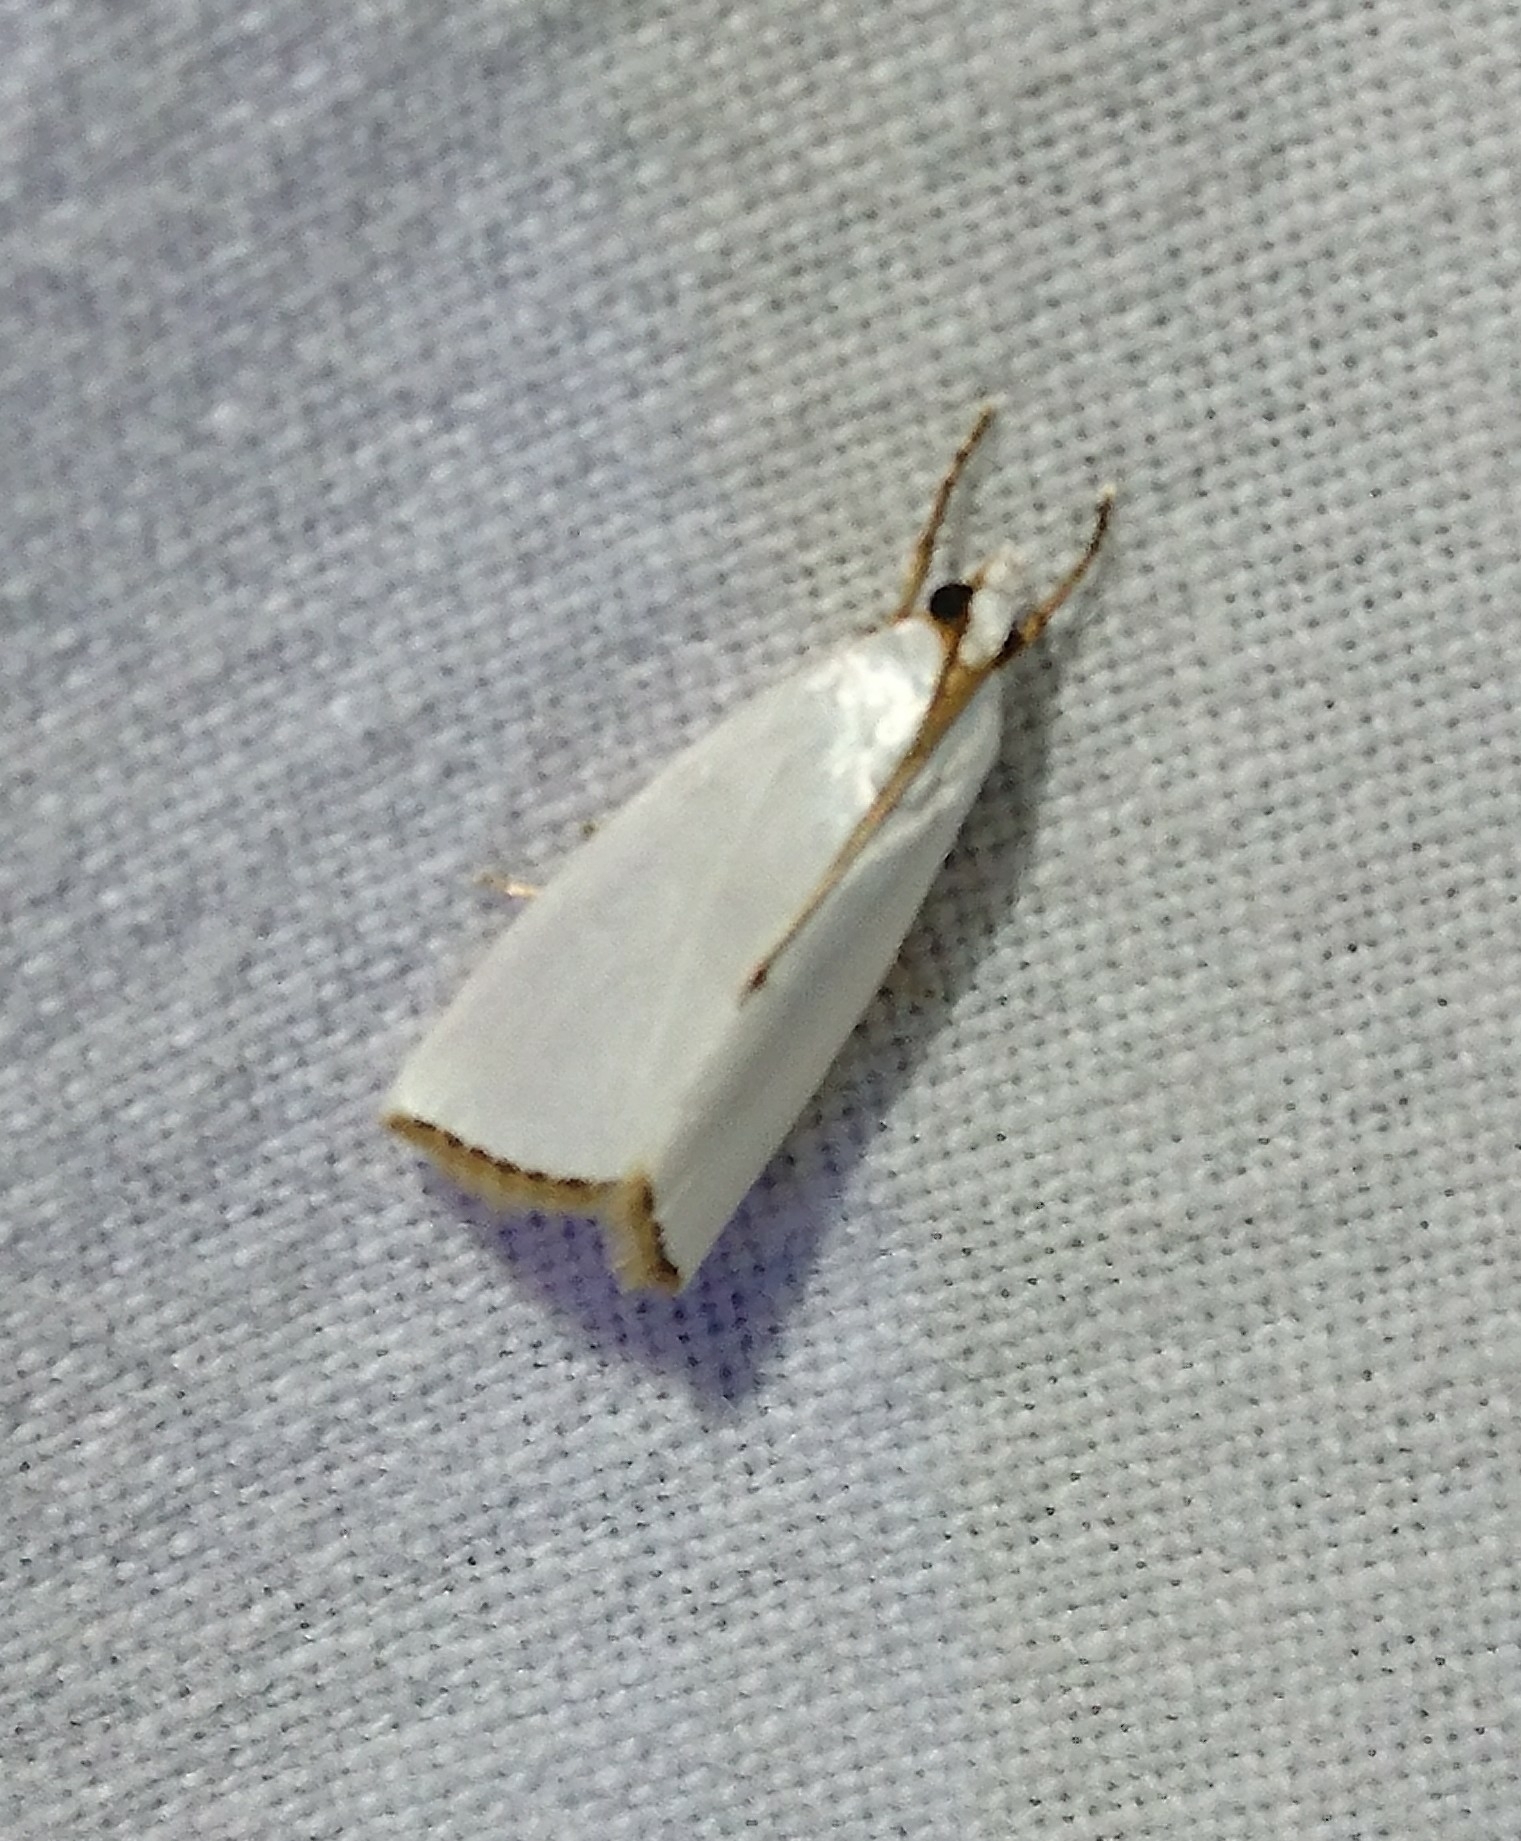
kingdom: Animalia
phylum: Arthropoda
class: Insecta
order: Lepidoptera
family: Crambidae
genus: Argyria
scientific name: Argyria nivalis
